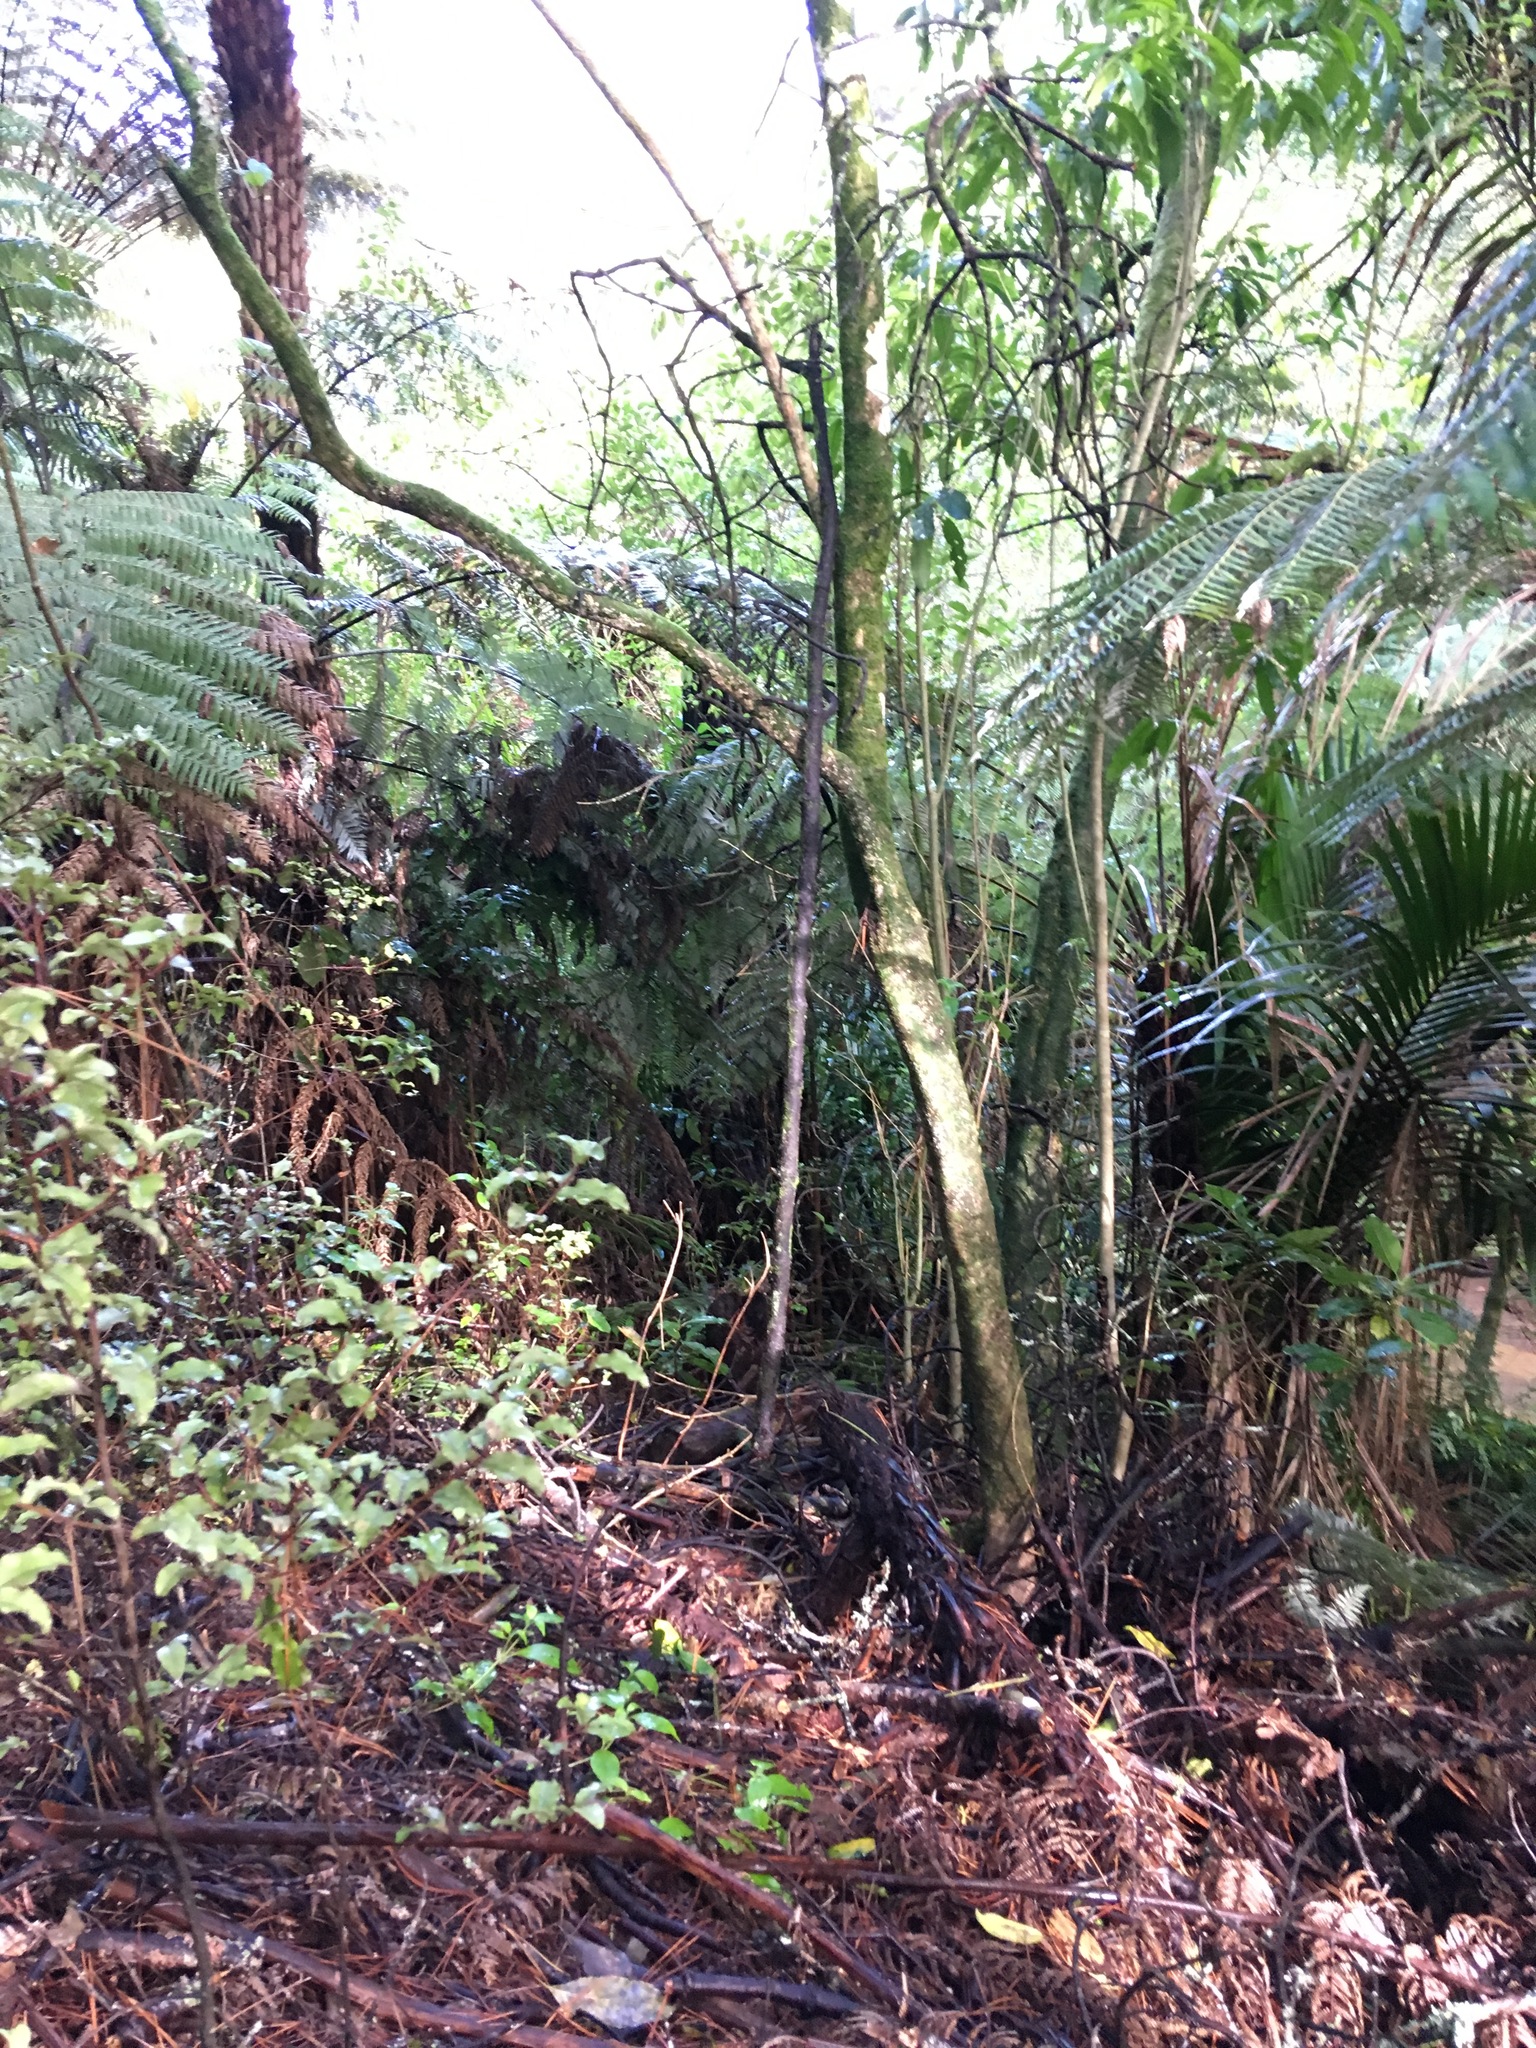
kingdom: Plantae
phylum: Tracheophyta
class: Magnoliopsida
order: Malpighiales
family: Violaceae
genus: Melicytus
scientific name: Melicytus ramiflorus
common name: Mahoe
